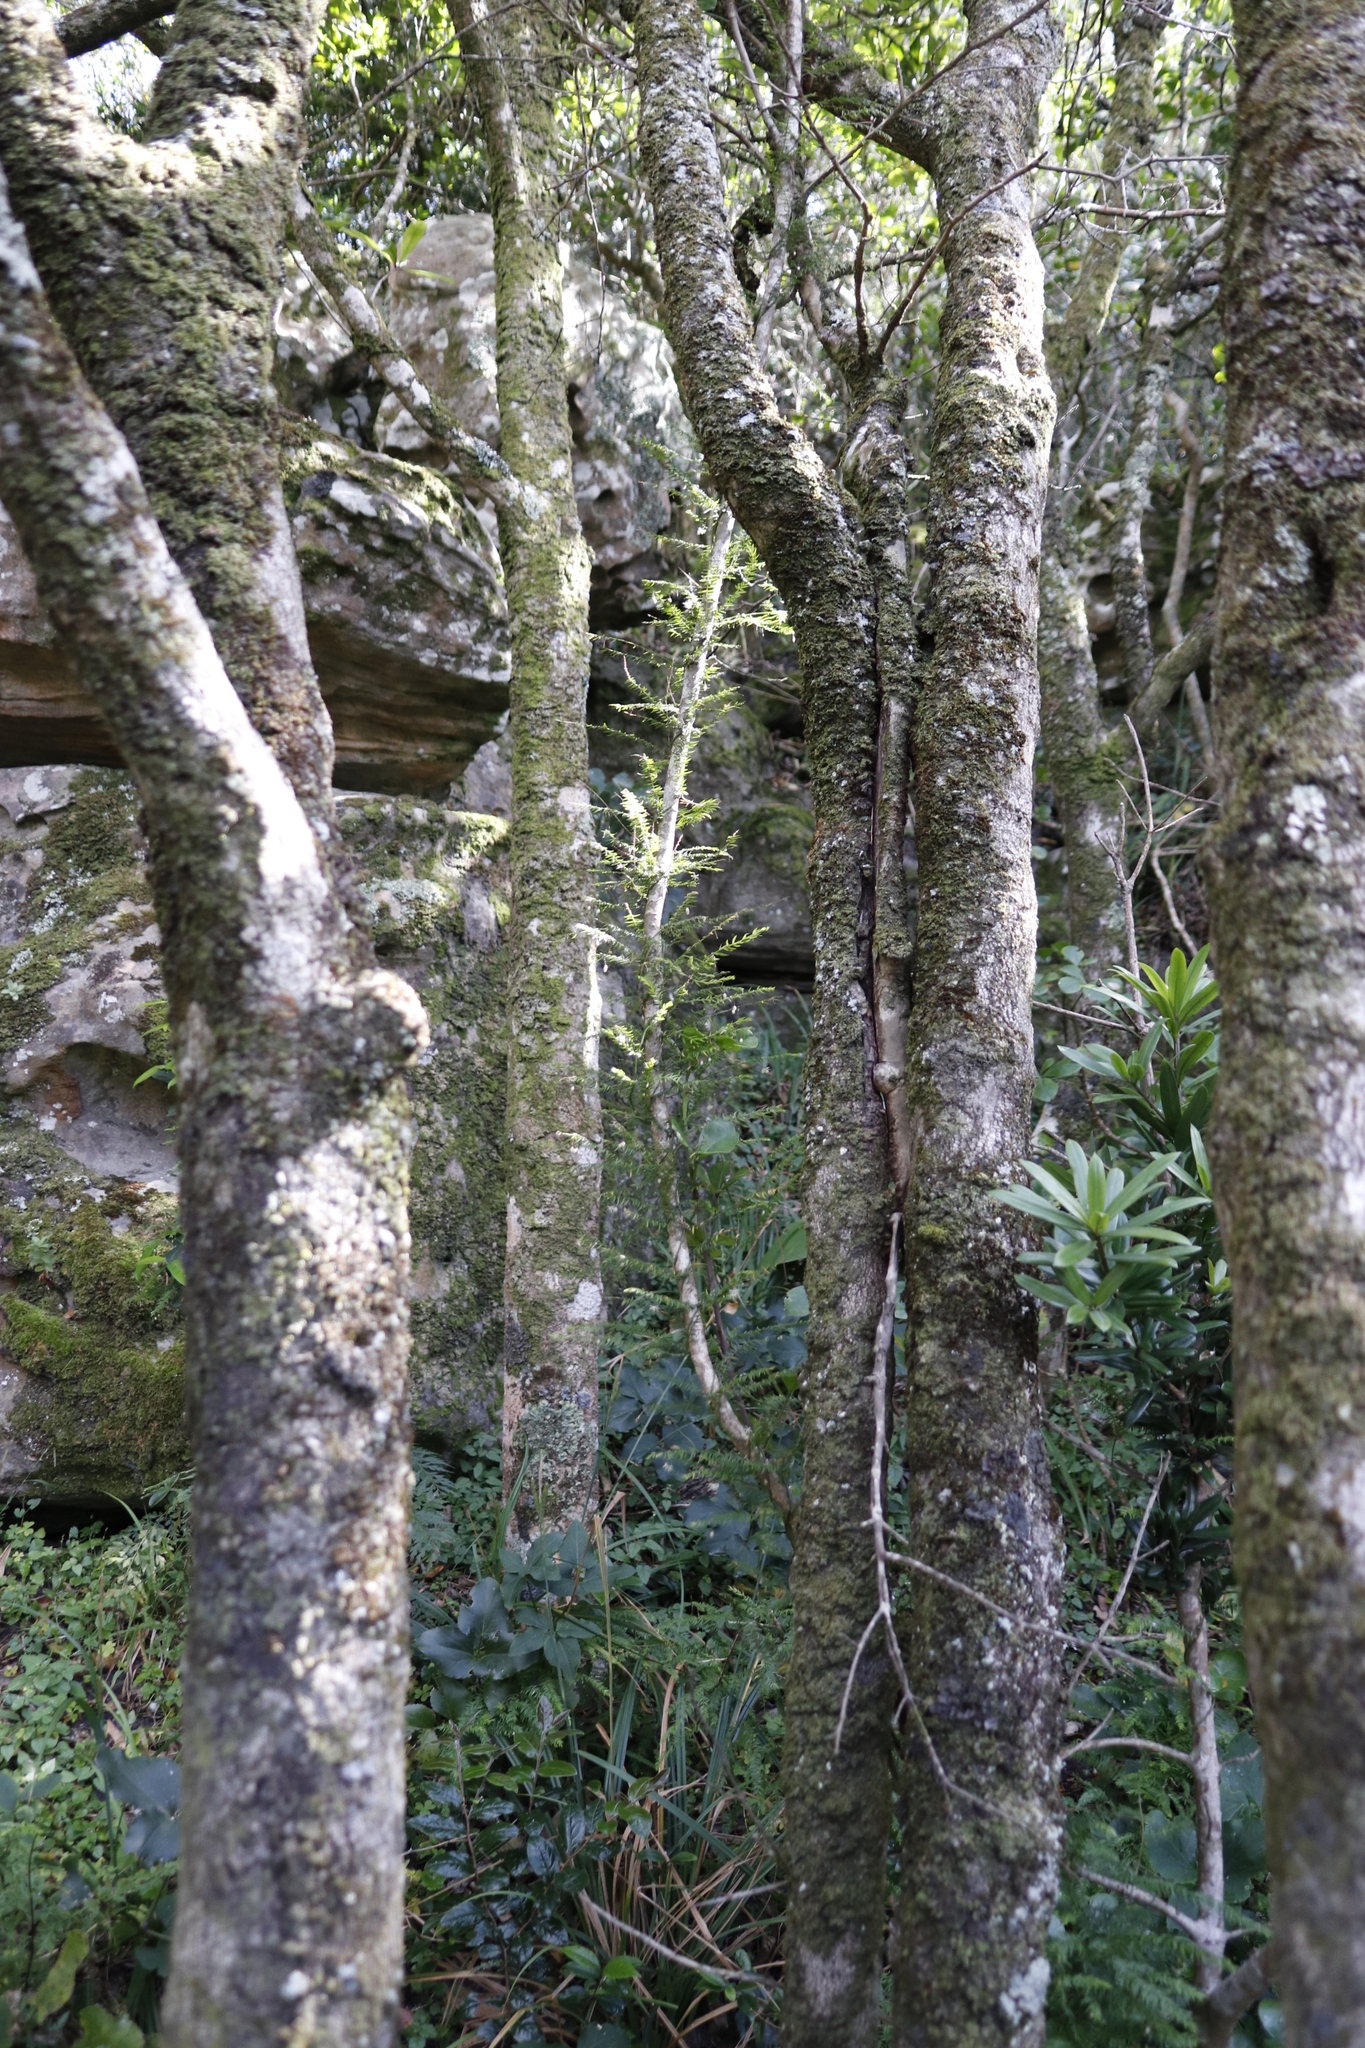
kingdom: Plantae
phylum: Tracheophyta
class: Liliopsida
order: Asparagales
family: Asparagaceae
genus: Asparagus
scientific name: Asparagus scandens
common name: Asparagus-fern
